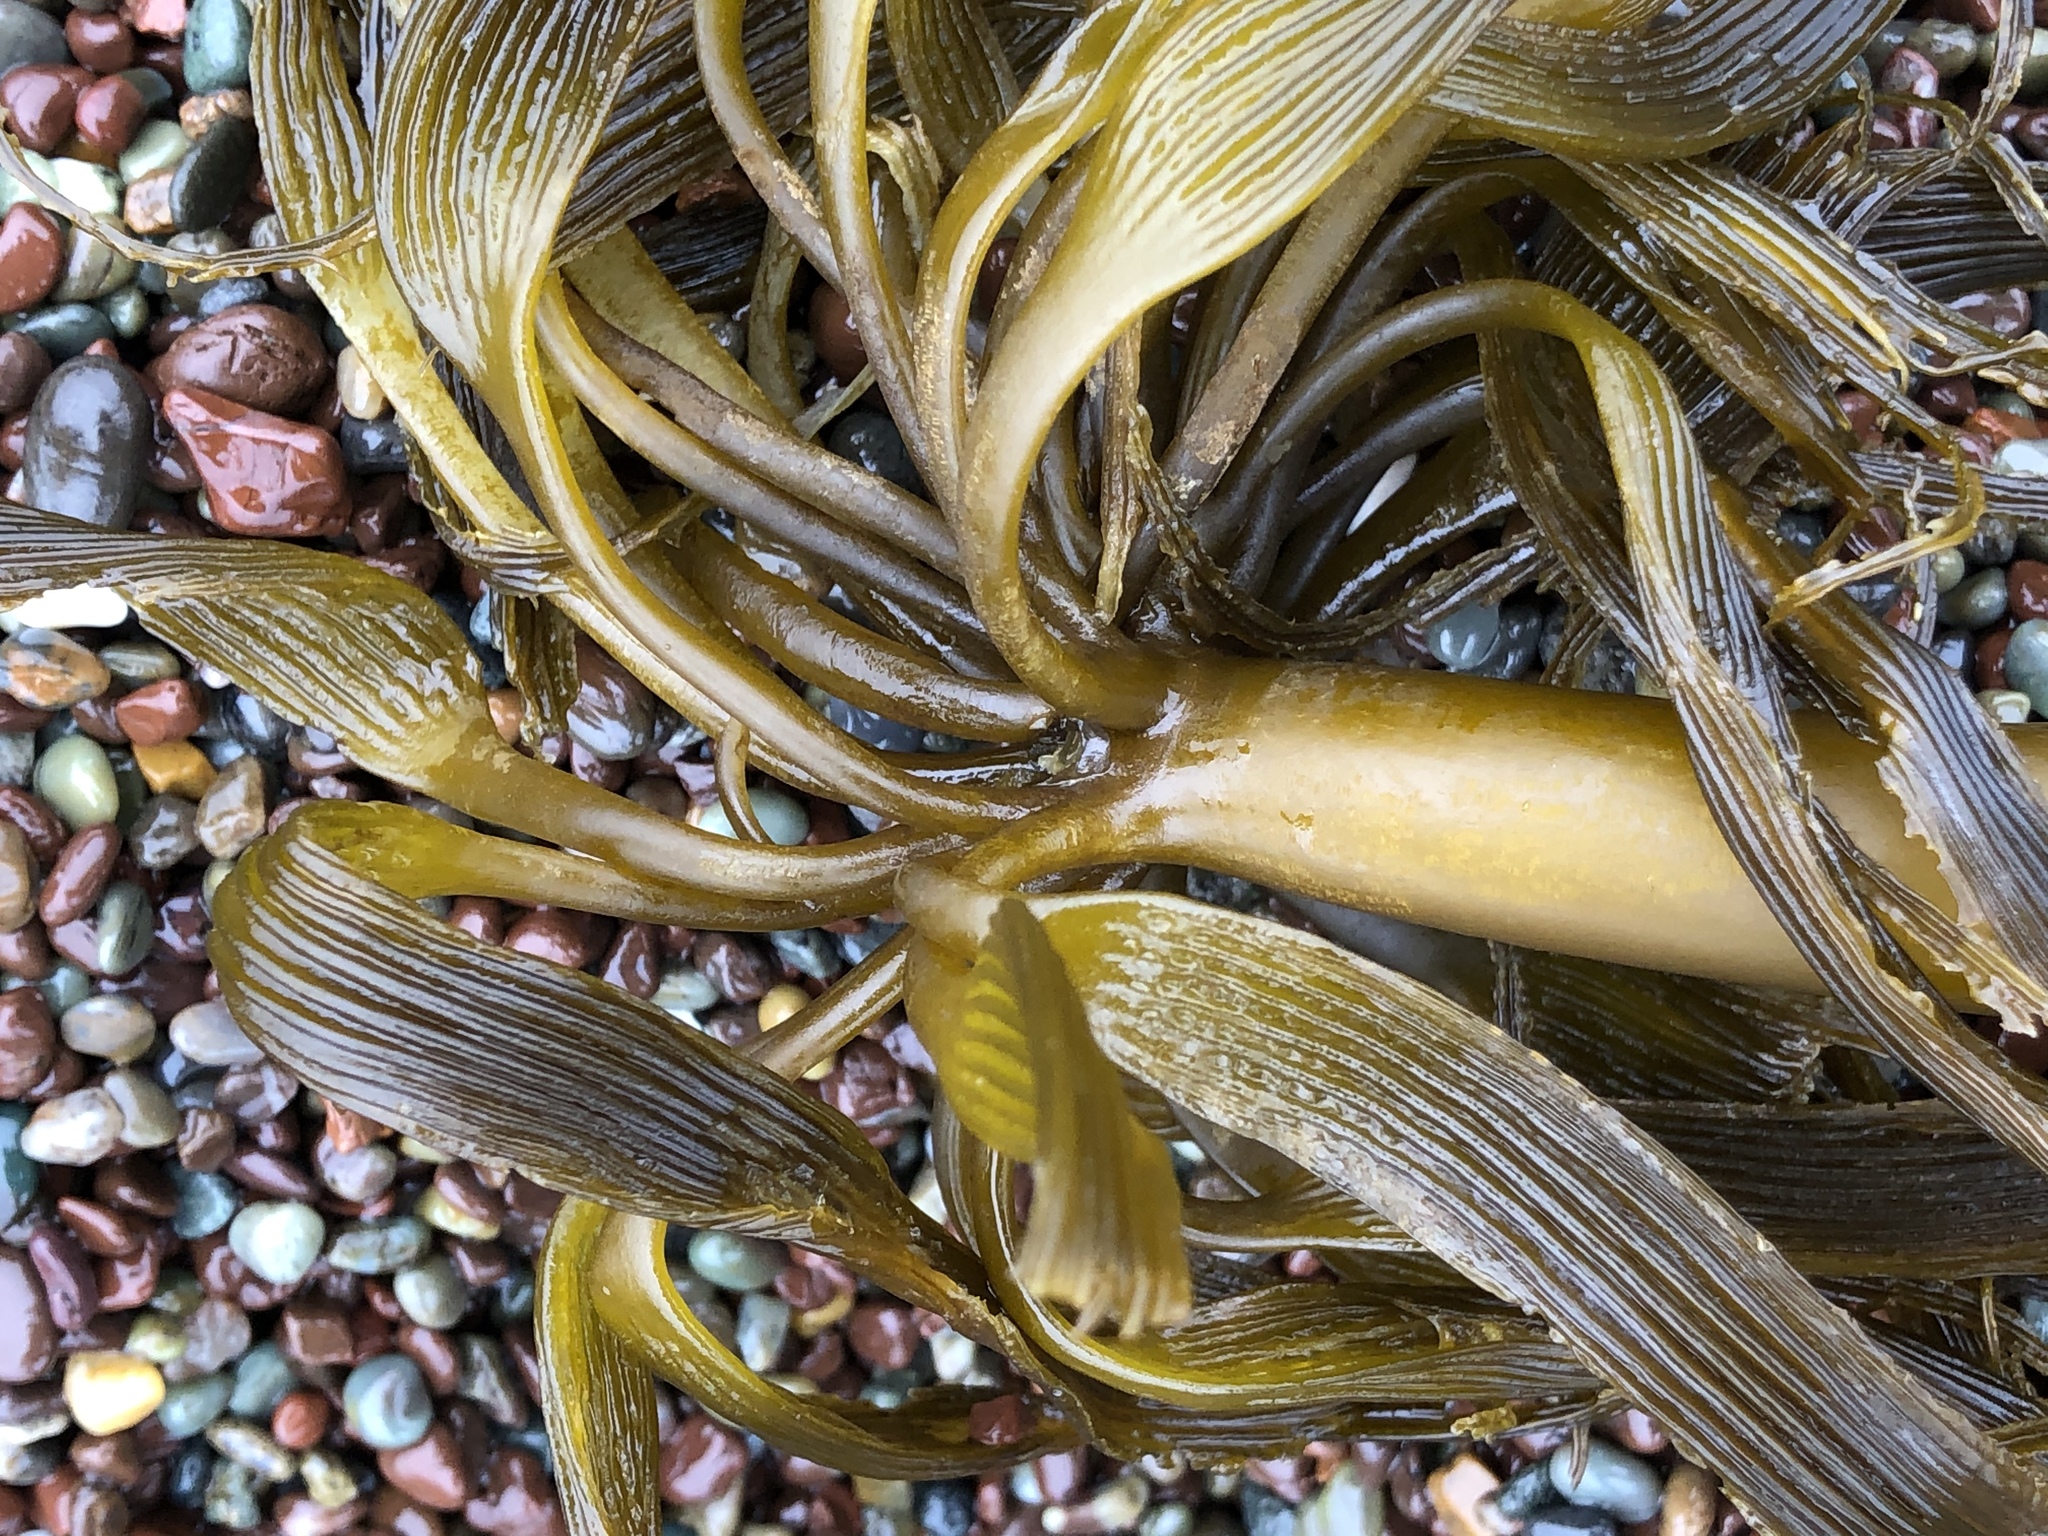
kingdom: Chromista
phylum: Ochrophyta
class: Phaeophyceae
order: Laminariales
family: Laminariaceae
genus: Postelsia
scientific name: Postelsia palmiformis
